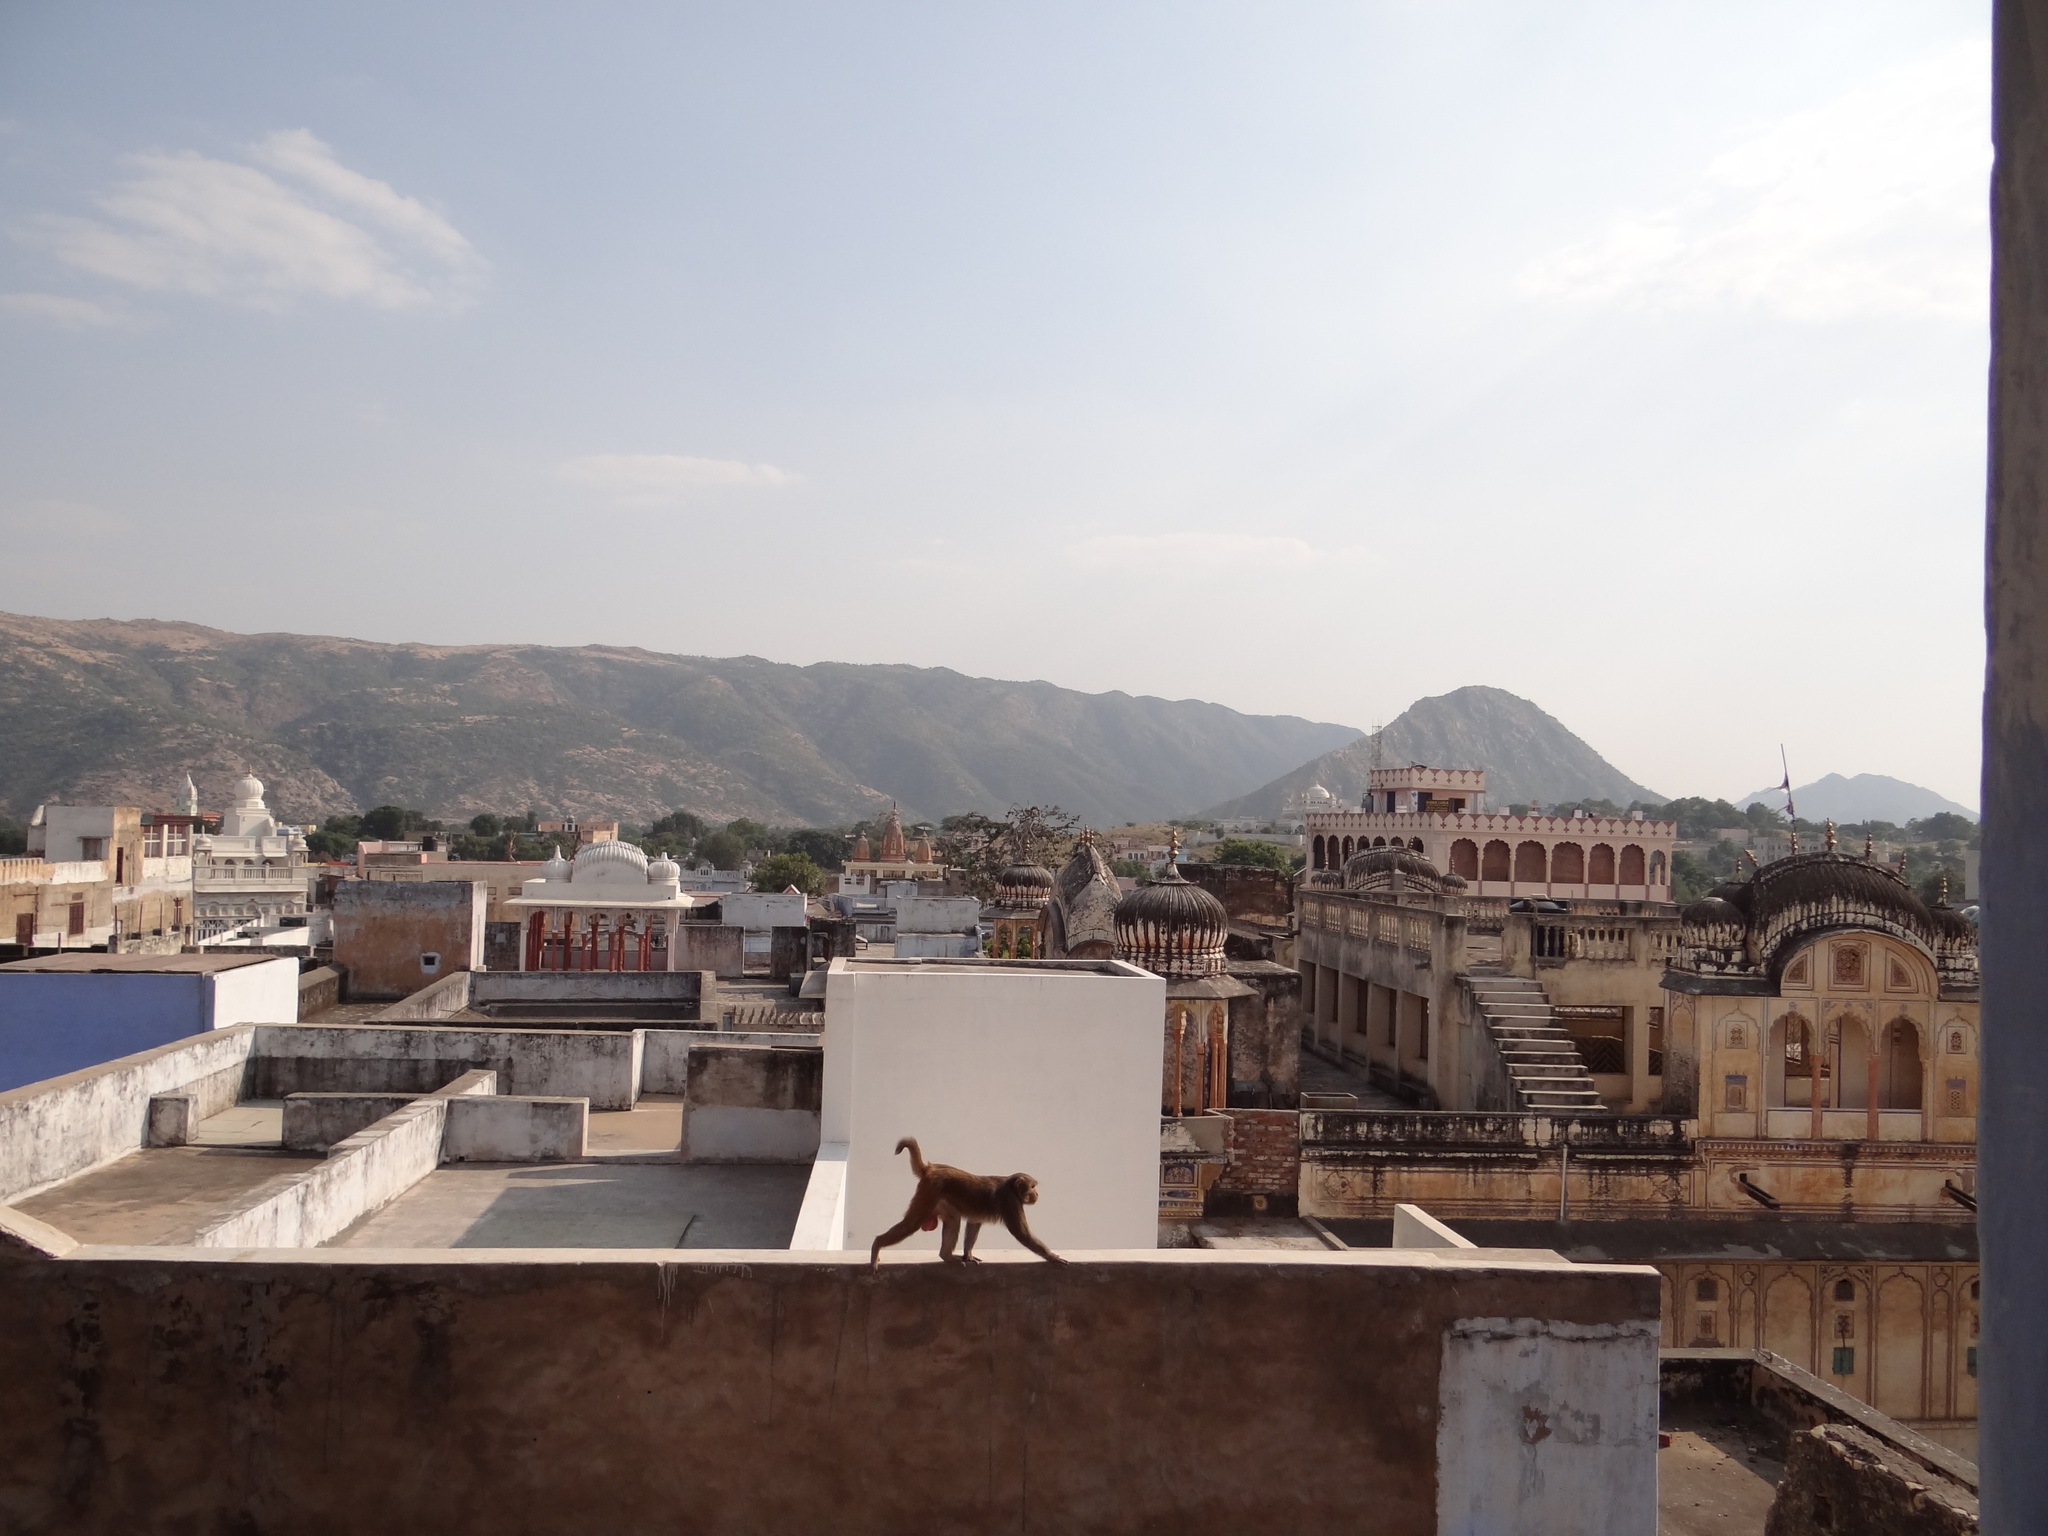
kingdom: Animalia
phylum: Chordata
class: Mammalia
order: Primates
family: Cercopithecidae
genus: Macaca
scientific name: Macaca mulatta
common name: Rhesus monkey
